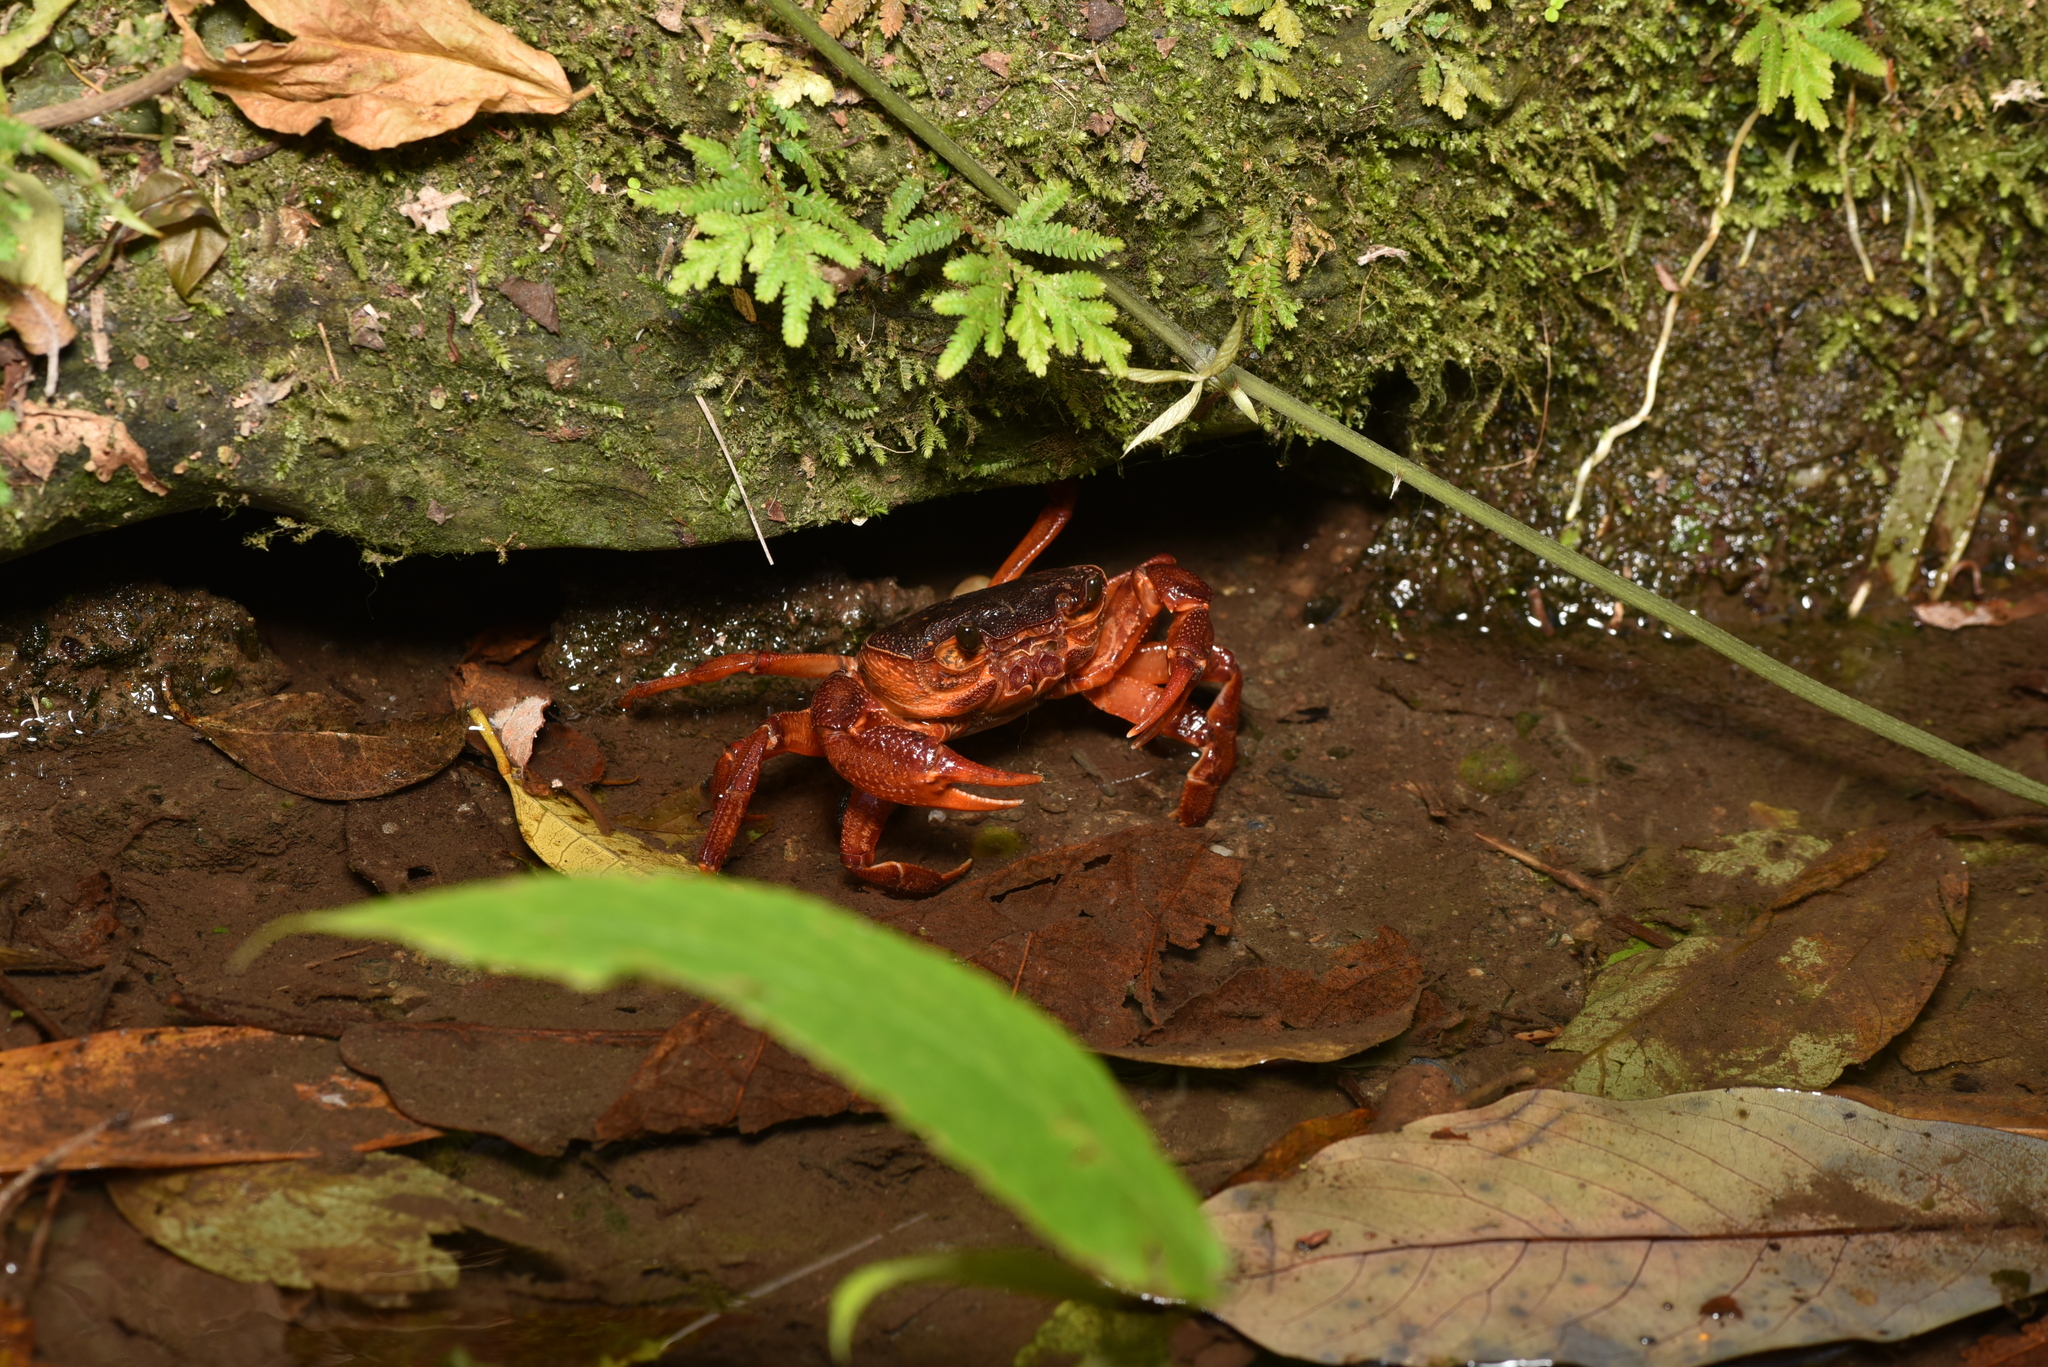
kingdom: Animalia
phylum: Arthropoda
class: Malacostraca
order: Decapoda
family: Potamidae
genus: Candidiopotamon
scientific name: Candidiopotamon
